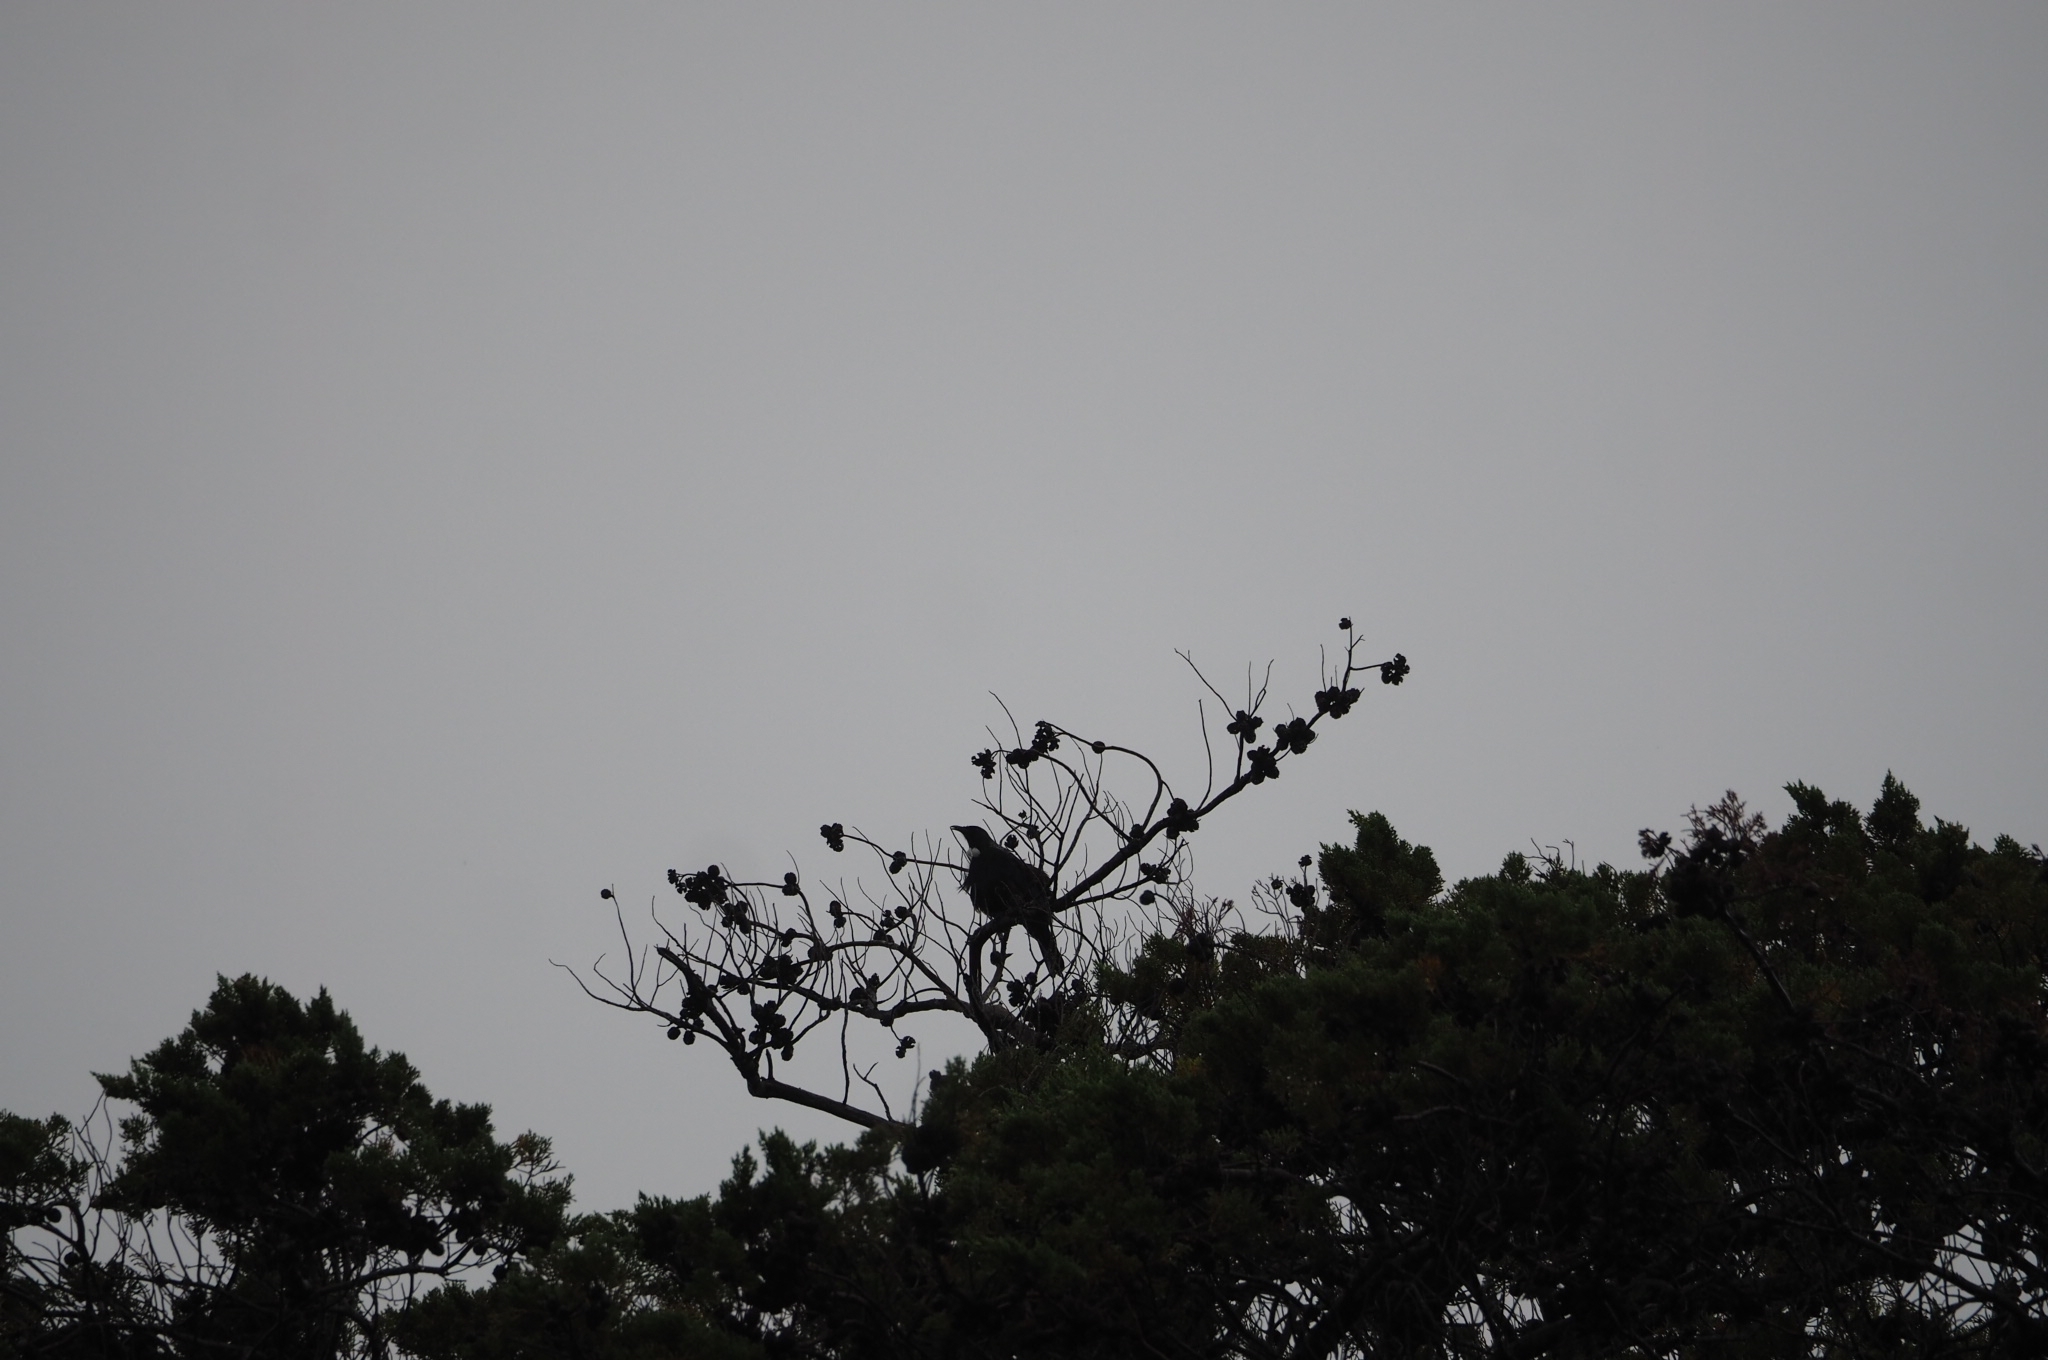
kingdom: Animalia
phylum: Chordata
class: Aves
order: Passeriformes
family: Meliphagidae
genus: Prosthemadera
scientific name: Prosthemadera novaeseelandiae
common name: Tui
